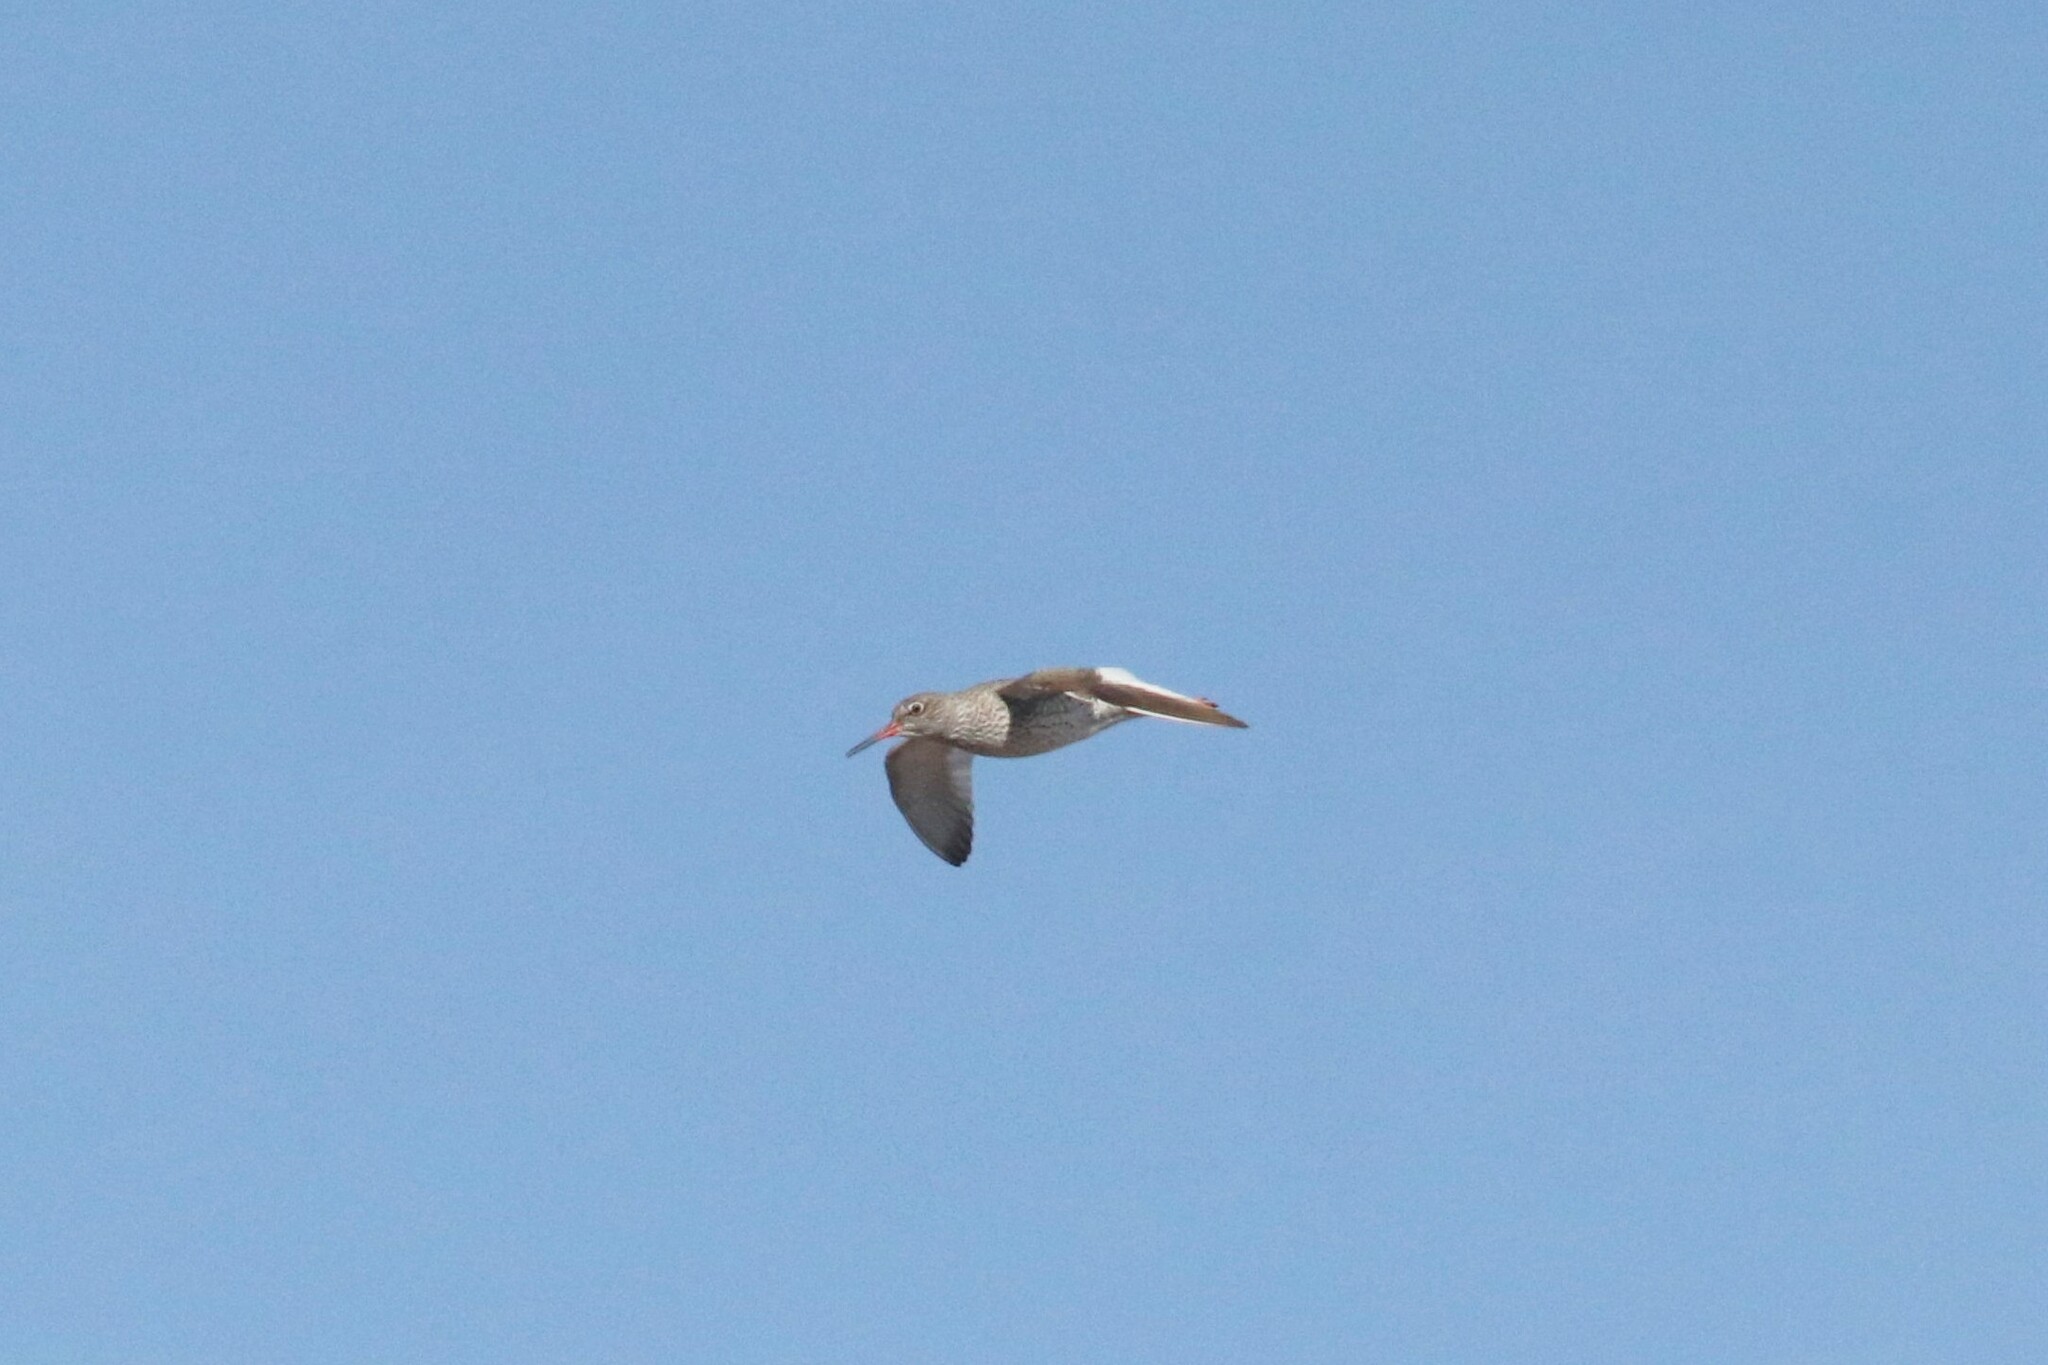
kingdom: Animalia
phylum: Chordata
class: Aves
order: Charadriiformes
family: Scolopacidae
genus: Tringa
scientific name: Tringa totanus
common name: Common redshank
